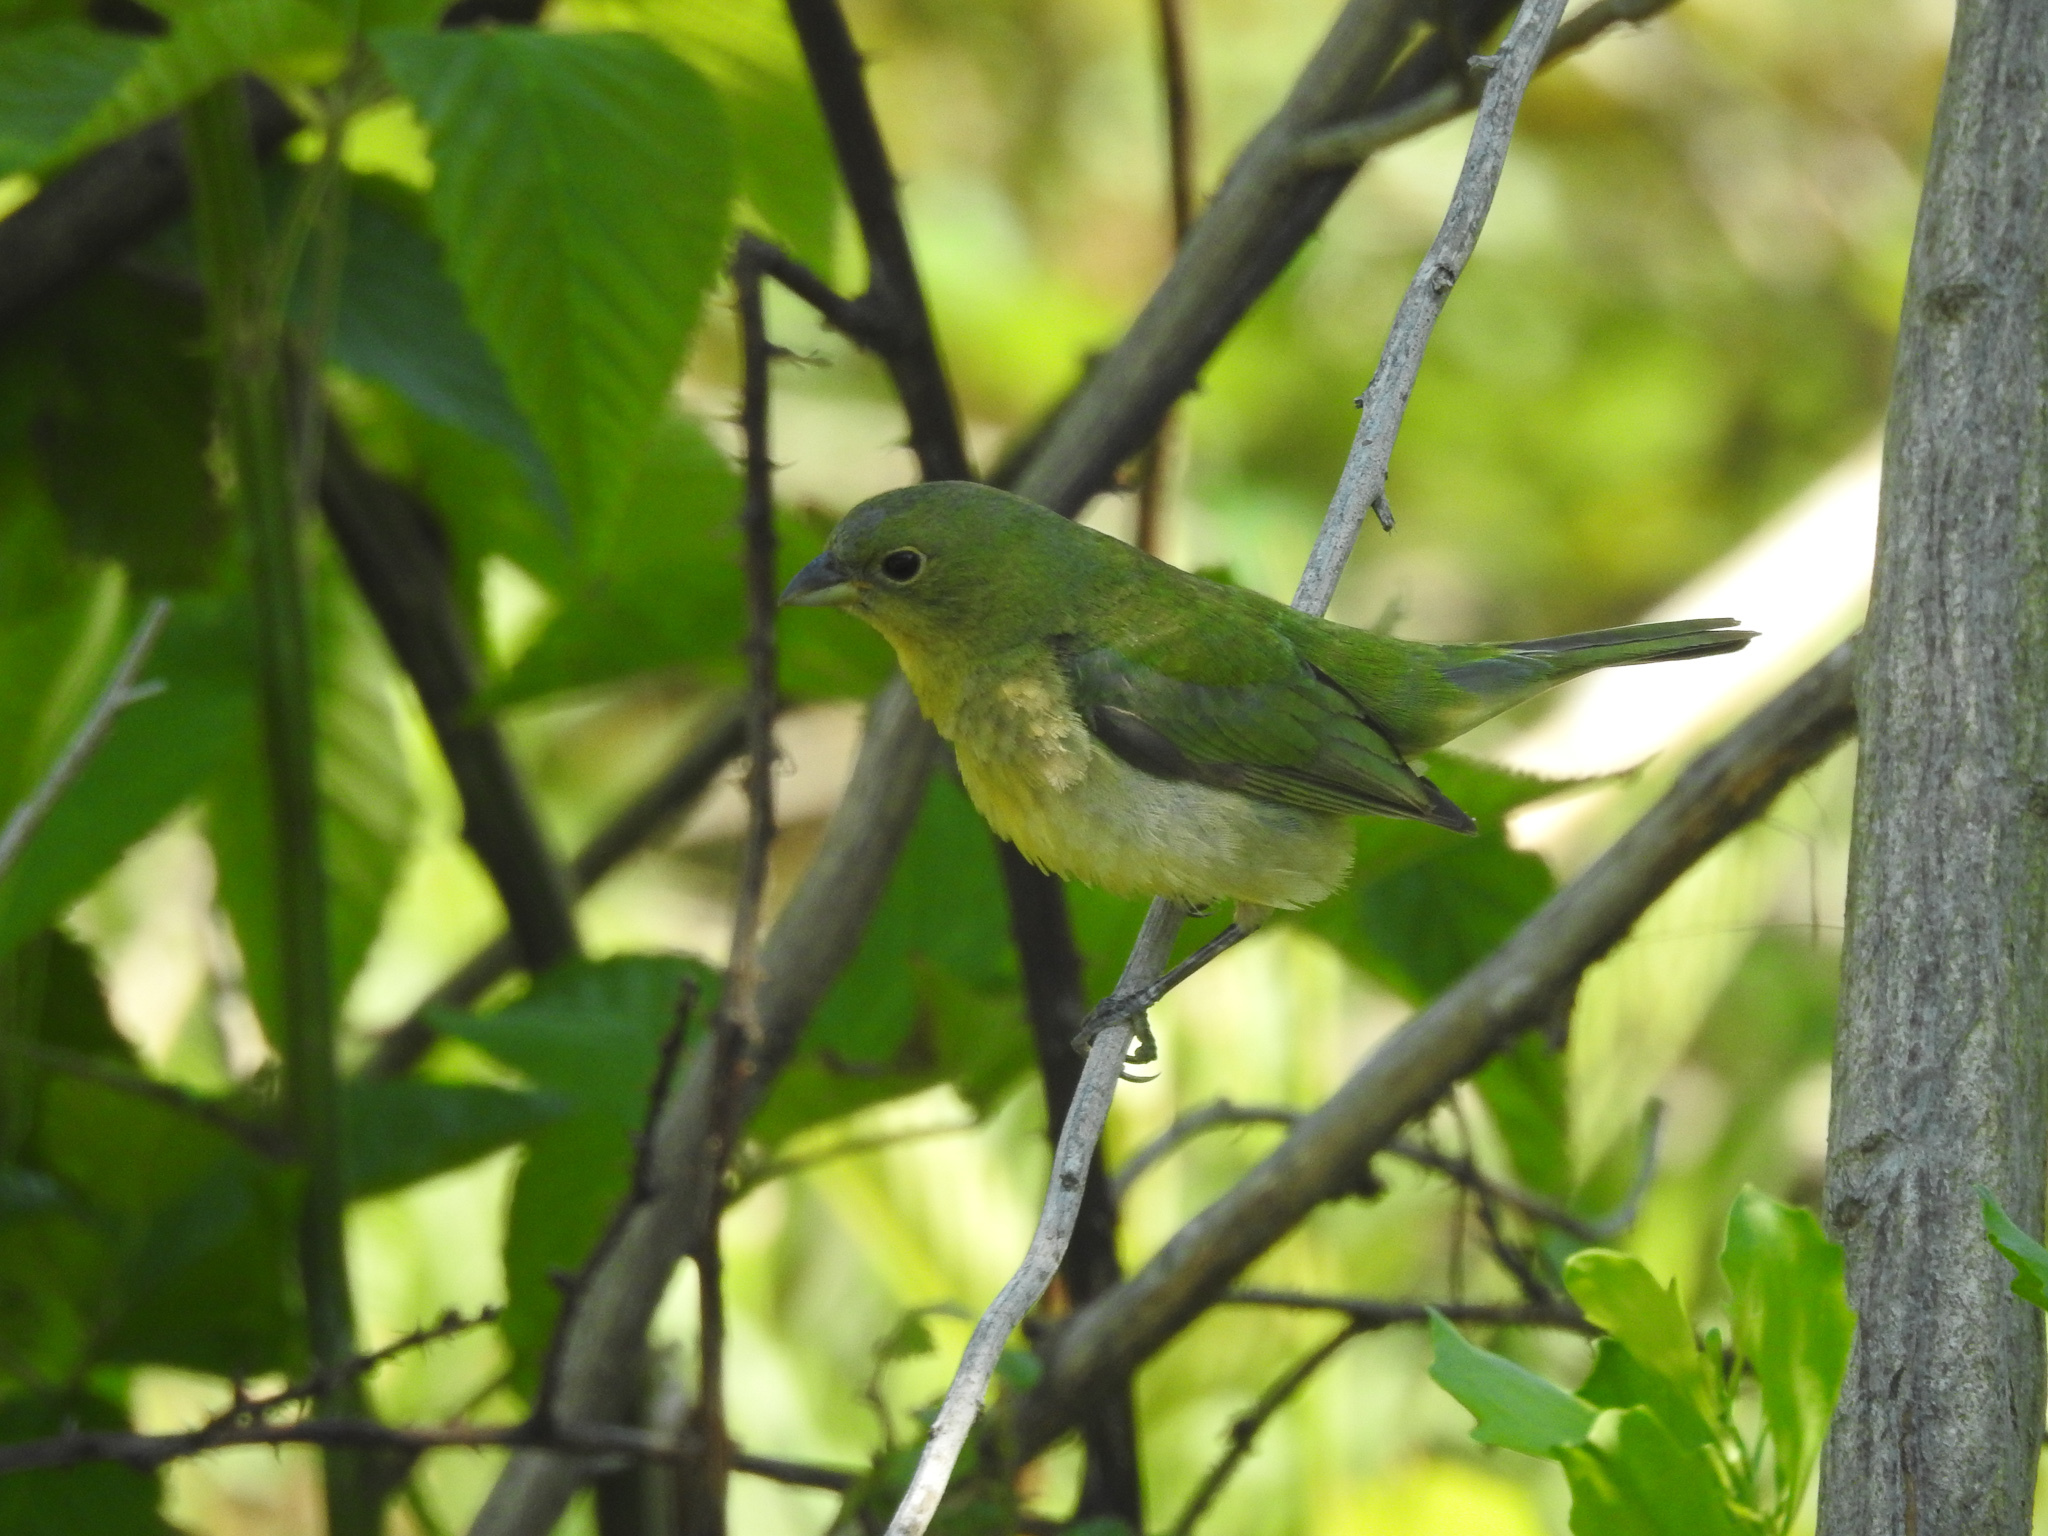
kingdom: Animalia
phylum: Chordata
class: Aves
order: Passeriformes
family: Cardinalidae
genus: Passerina
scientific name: Passerina ciris
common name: Painted bunting
